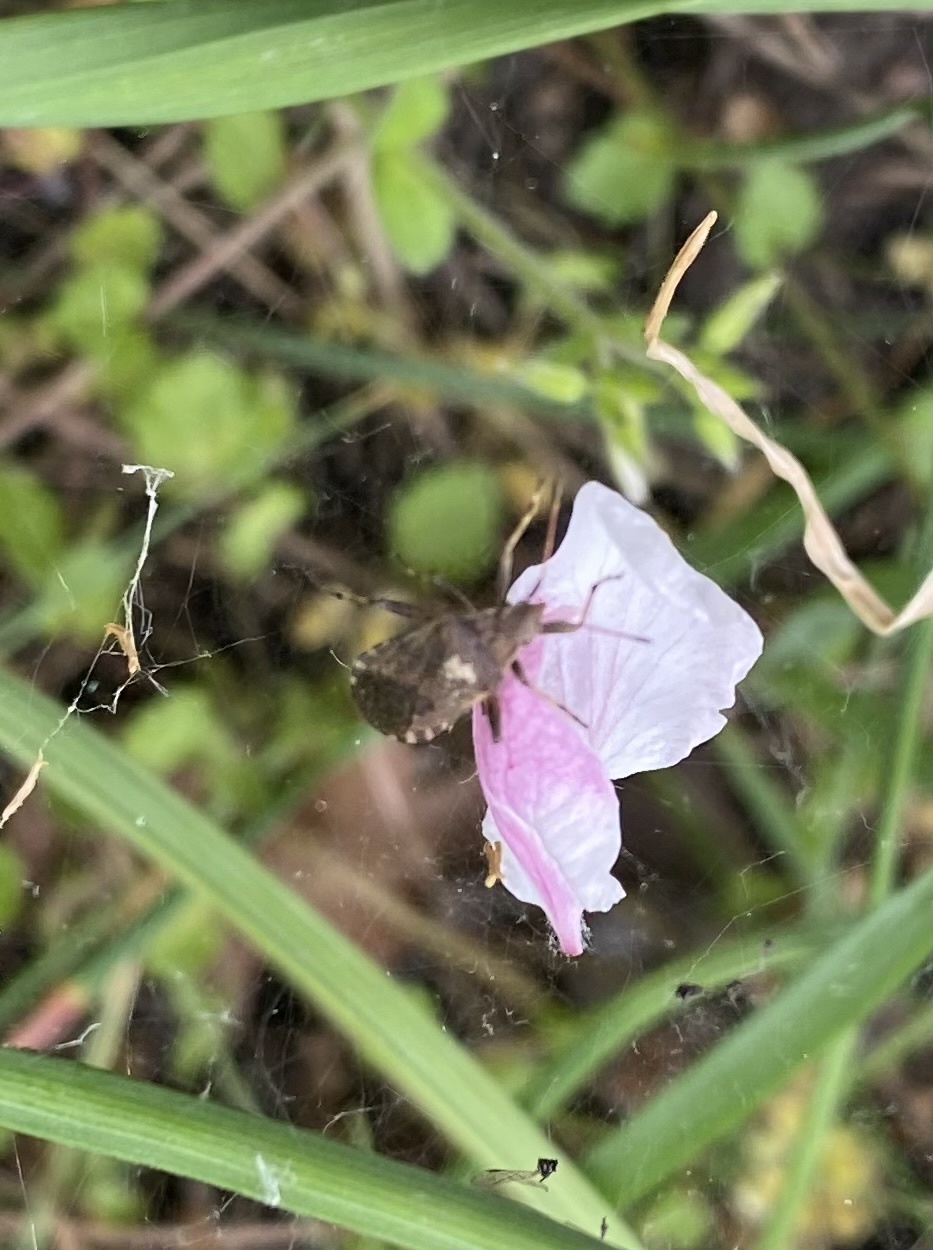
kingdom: Animalia
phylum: Arthropoda
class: Insecta
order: Hemiptera
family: Coreidae
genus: Ceraleptus
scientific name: Ceraleptus gracilicornis
